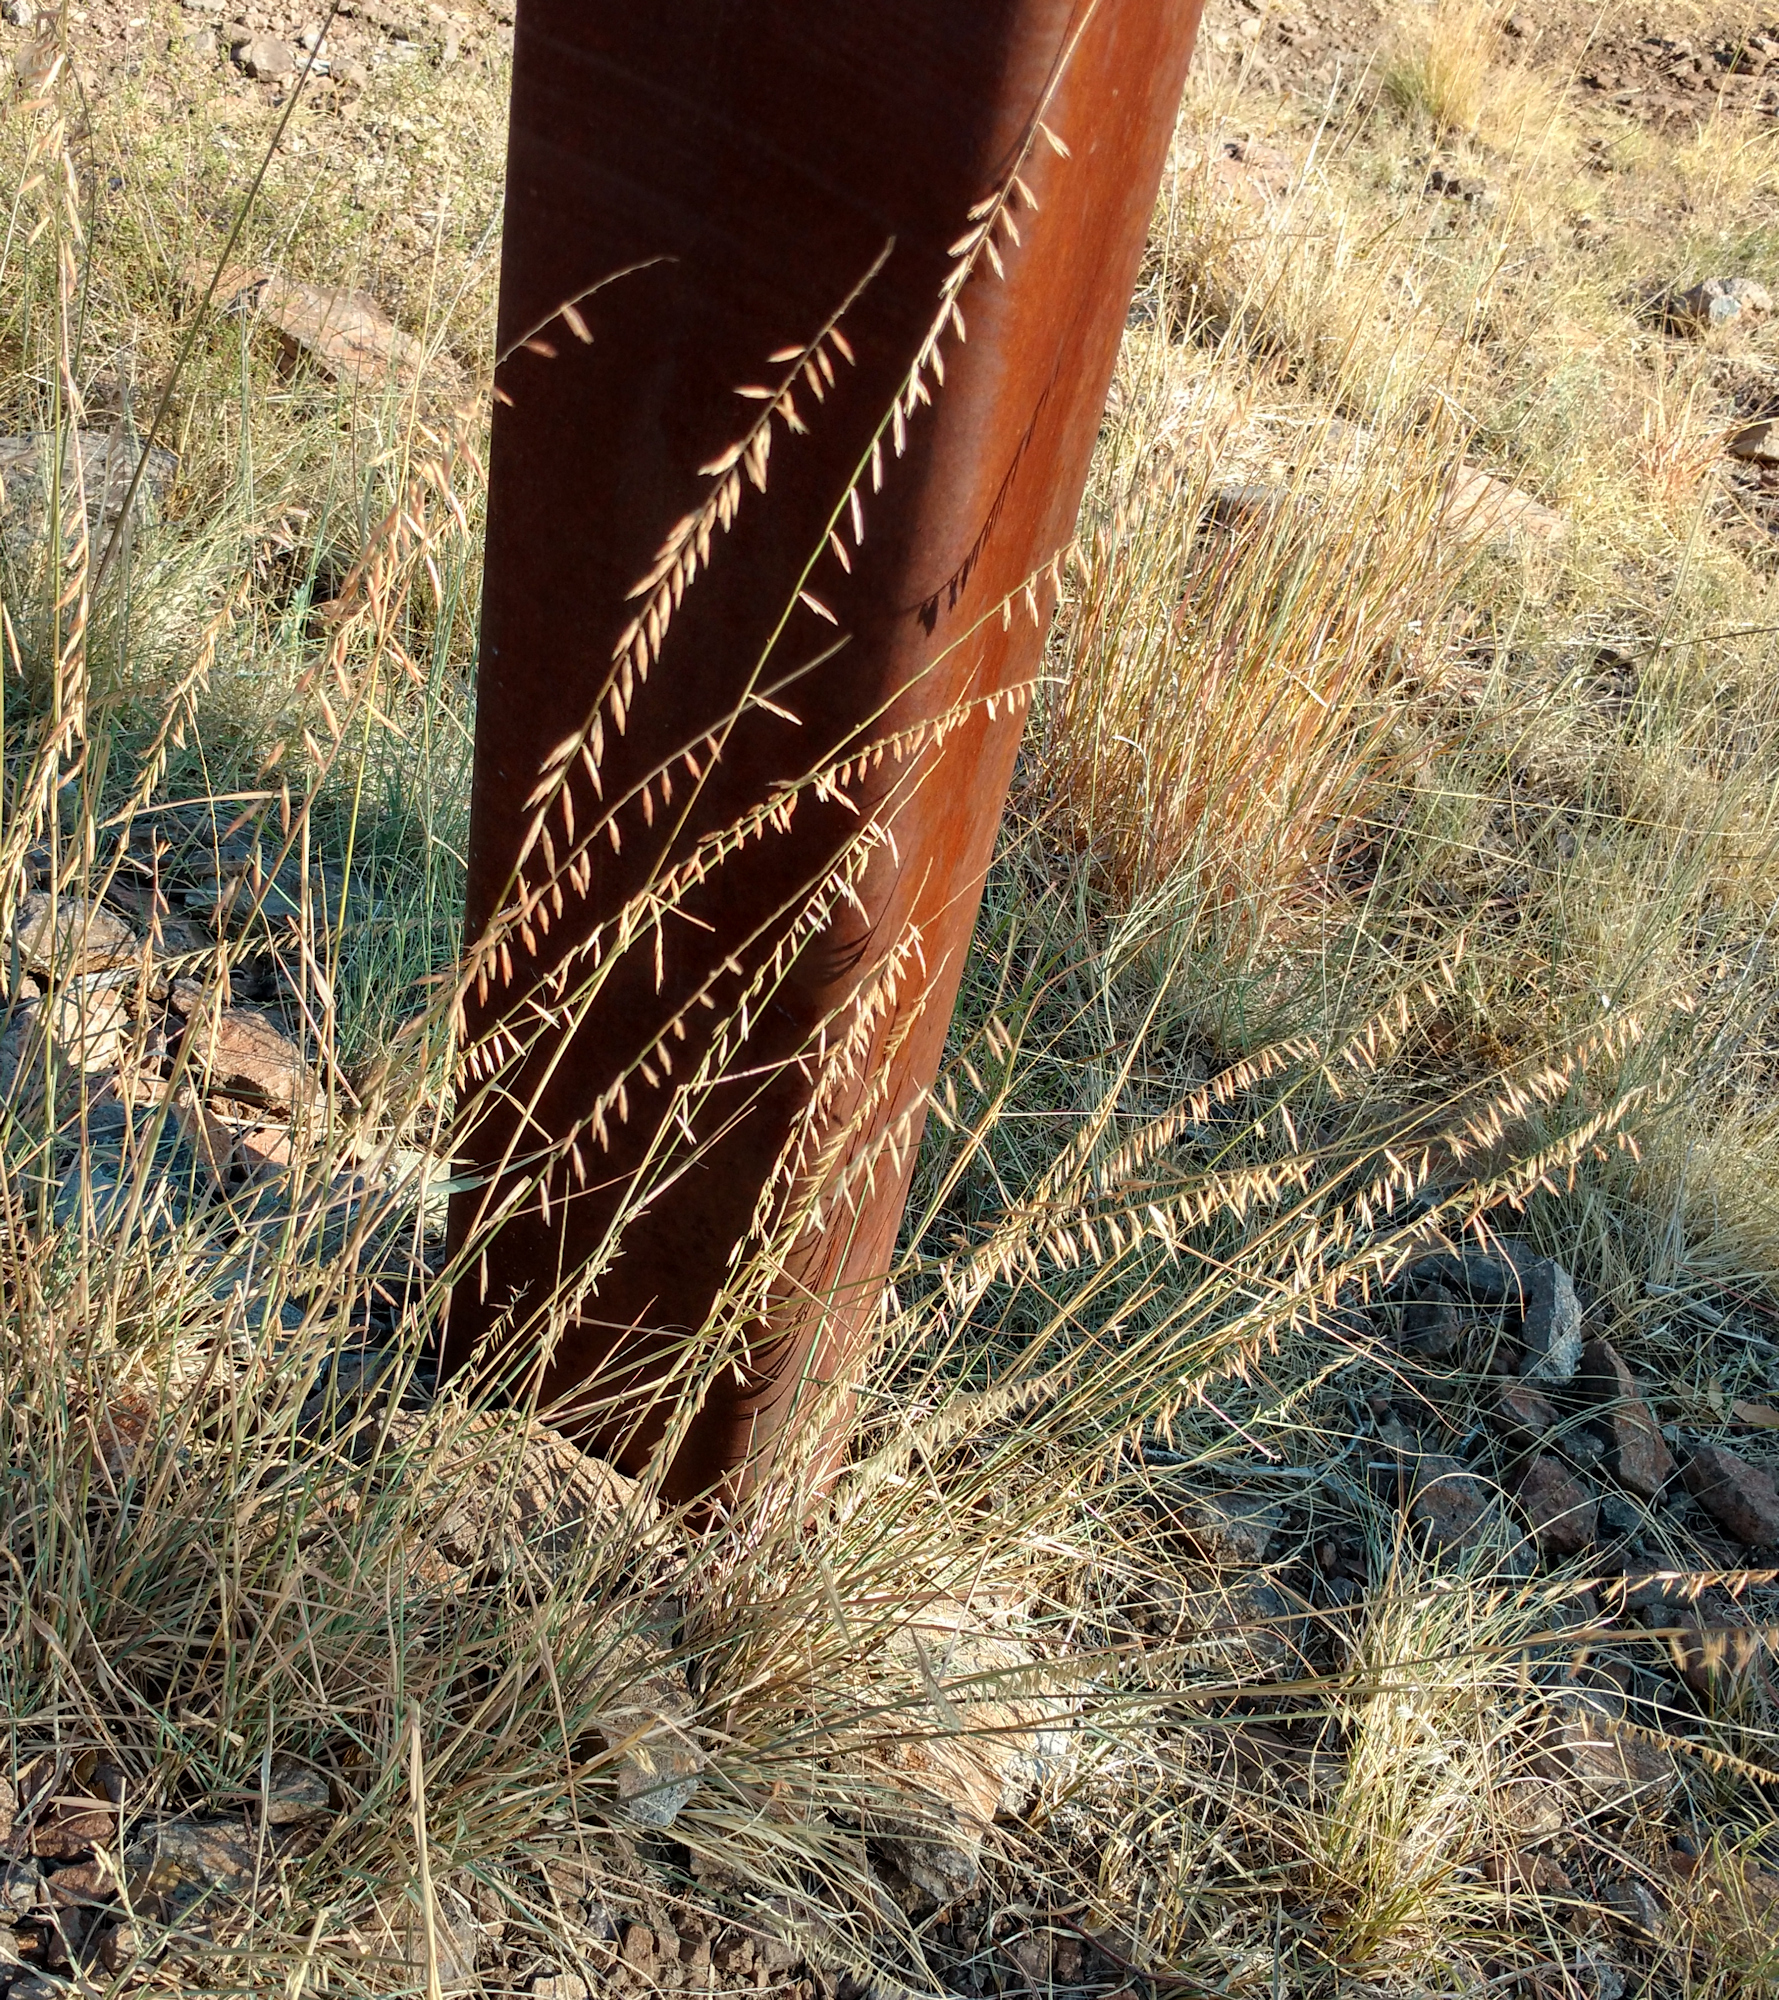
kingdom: Plantae
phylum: Tracheophyta
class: Liliopsida
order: Poales
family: Poaceae
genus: Bouteloua
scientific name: Bouteloua curtipendula
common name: Side-oats grama
